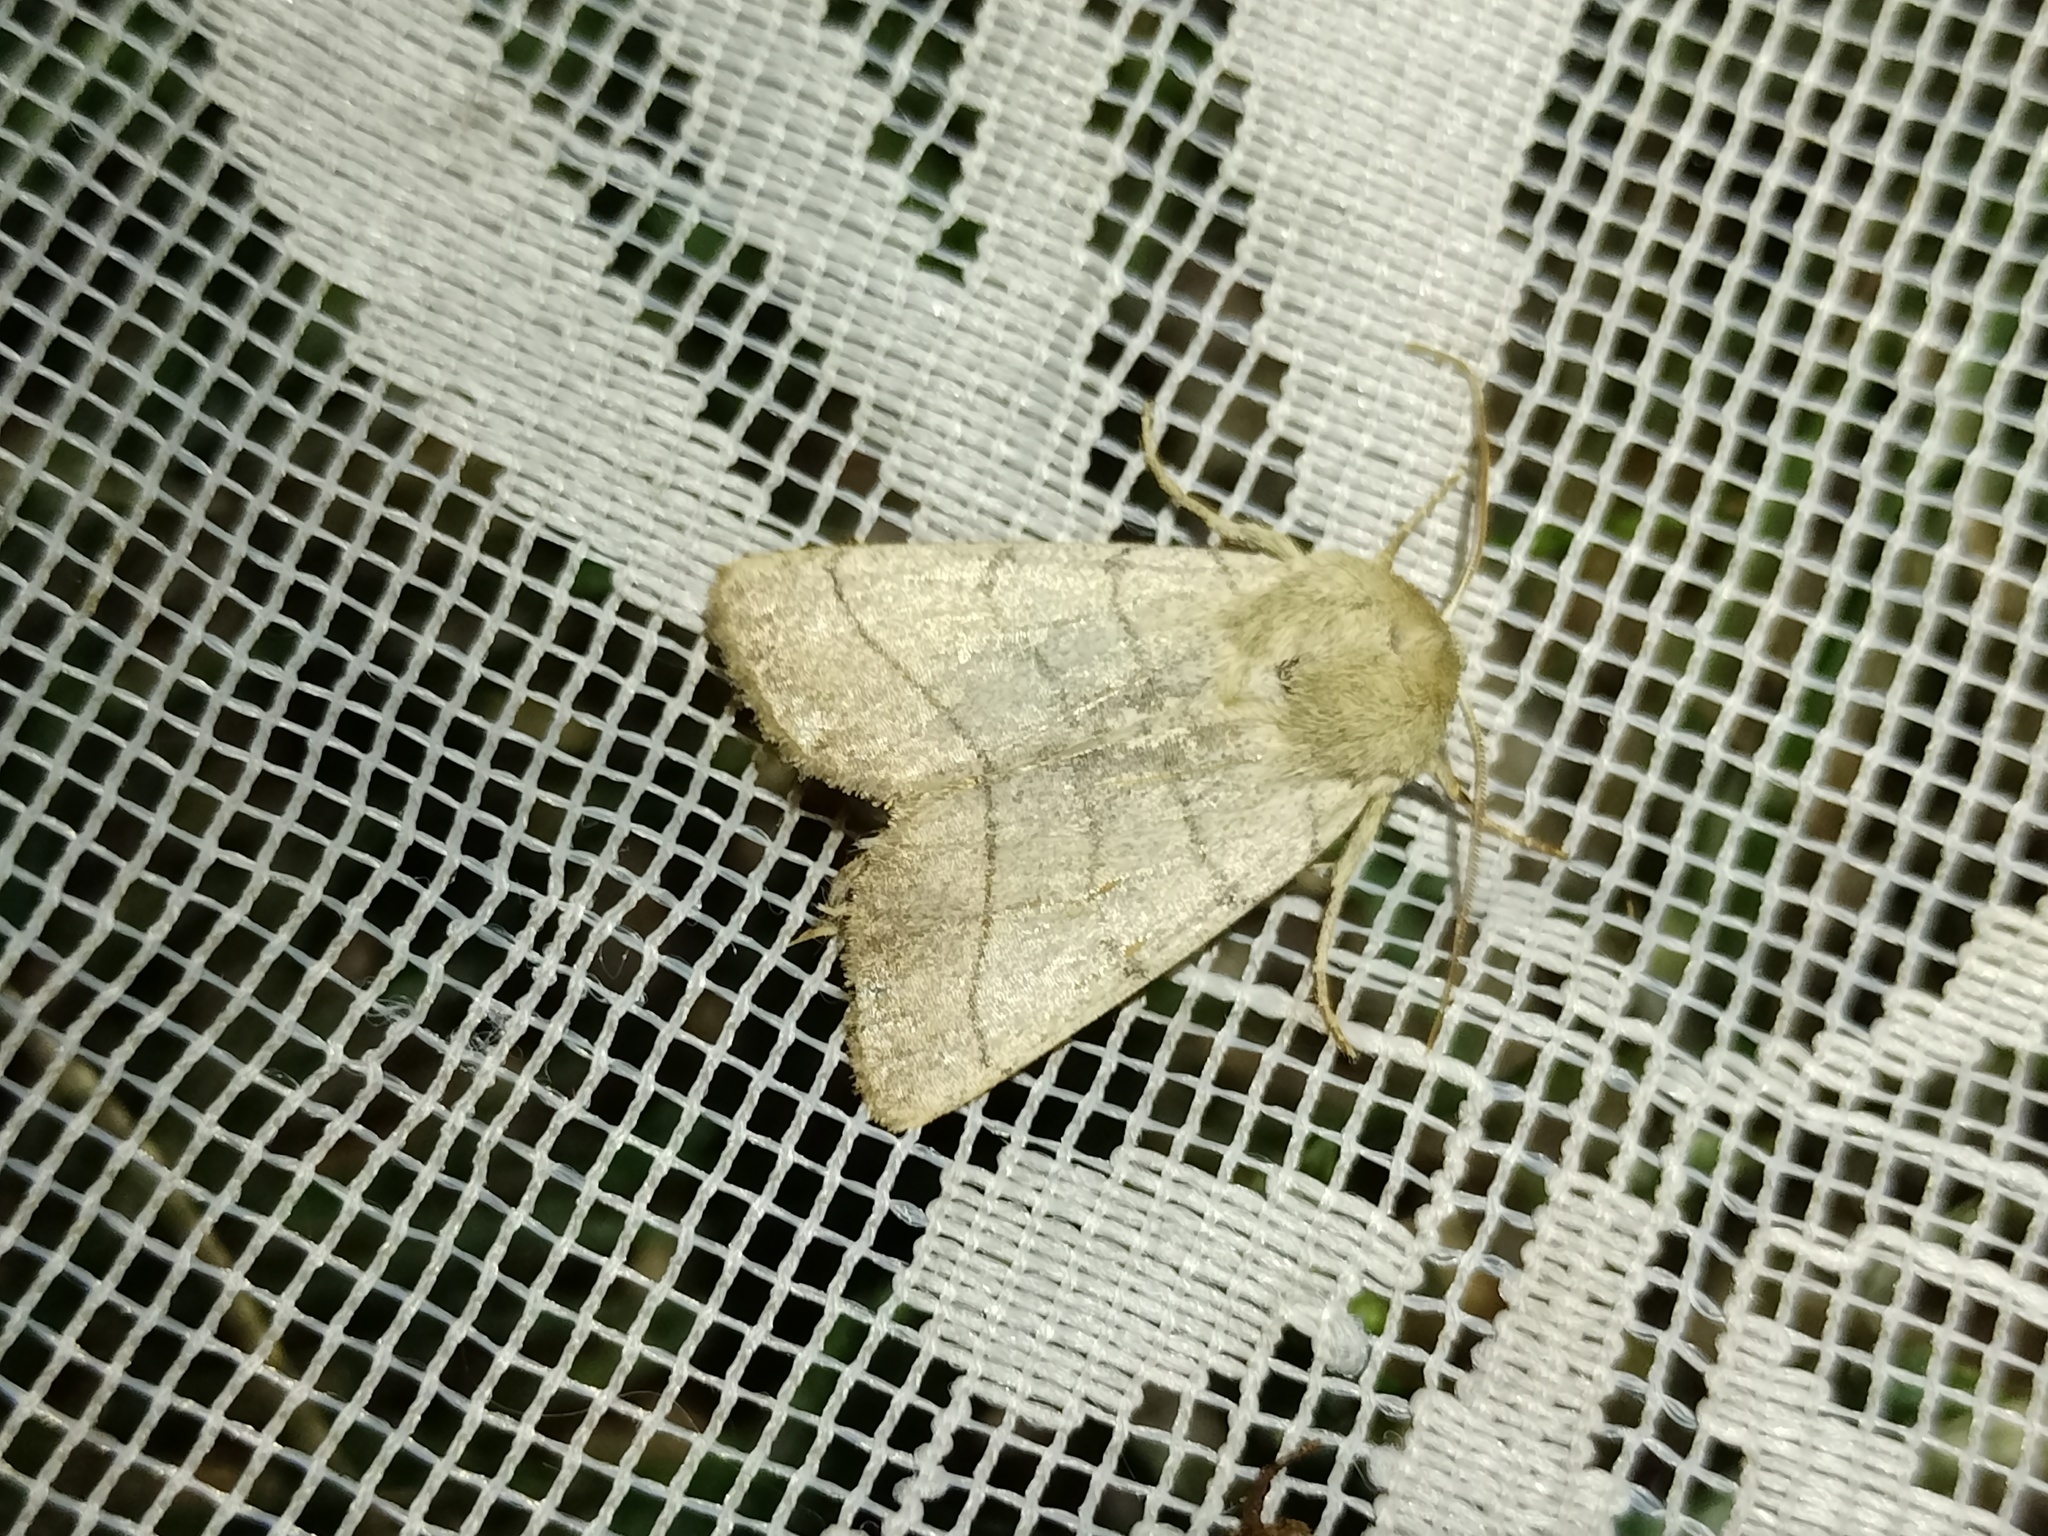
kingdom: Animalia
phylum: Arthropoda
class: Insecta
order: Lepidoptera
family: Noctuidae
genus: Charanyca
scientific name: Charanyca trigrammica
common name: Treble lines
